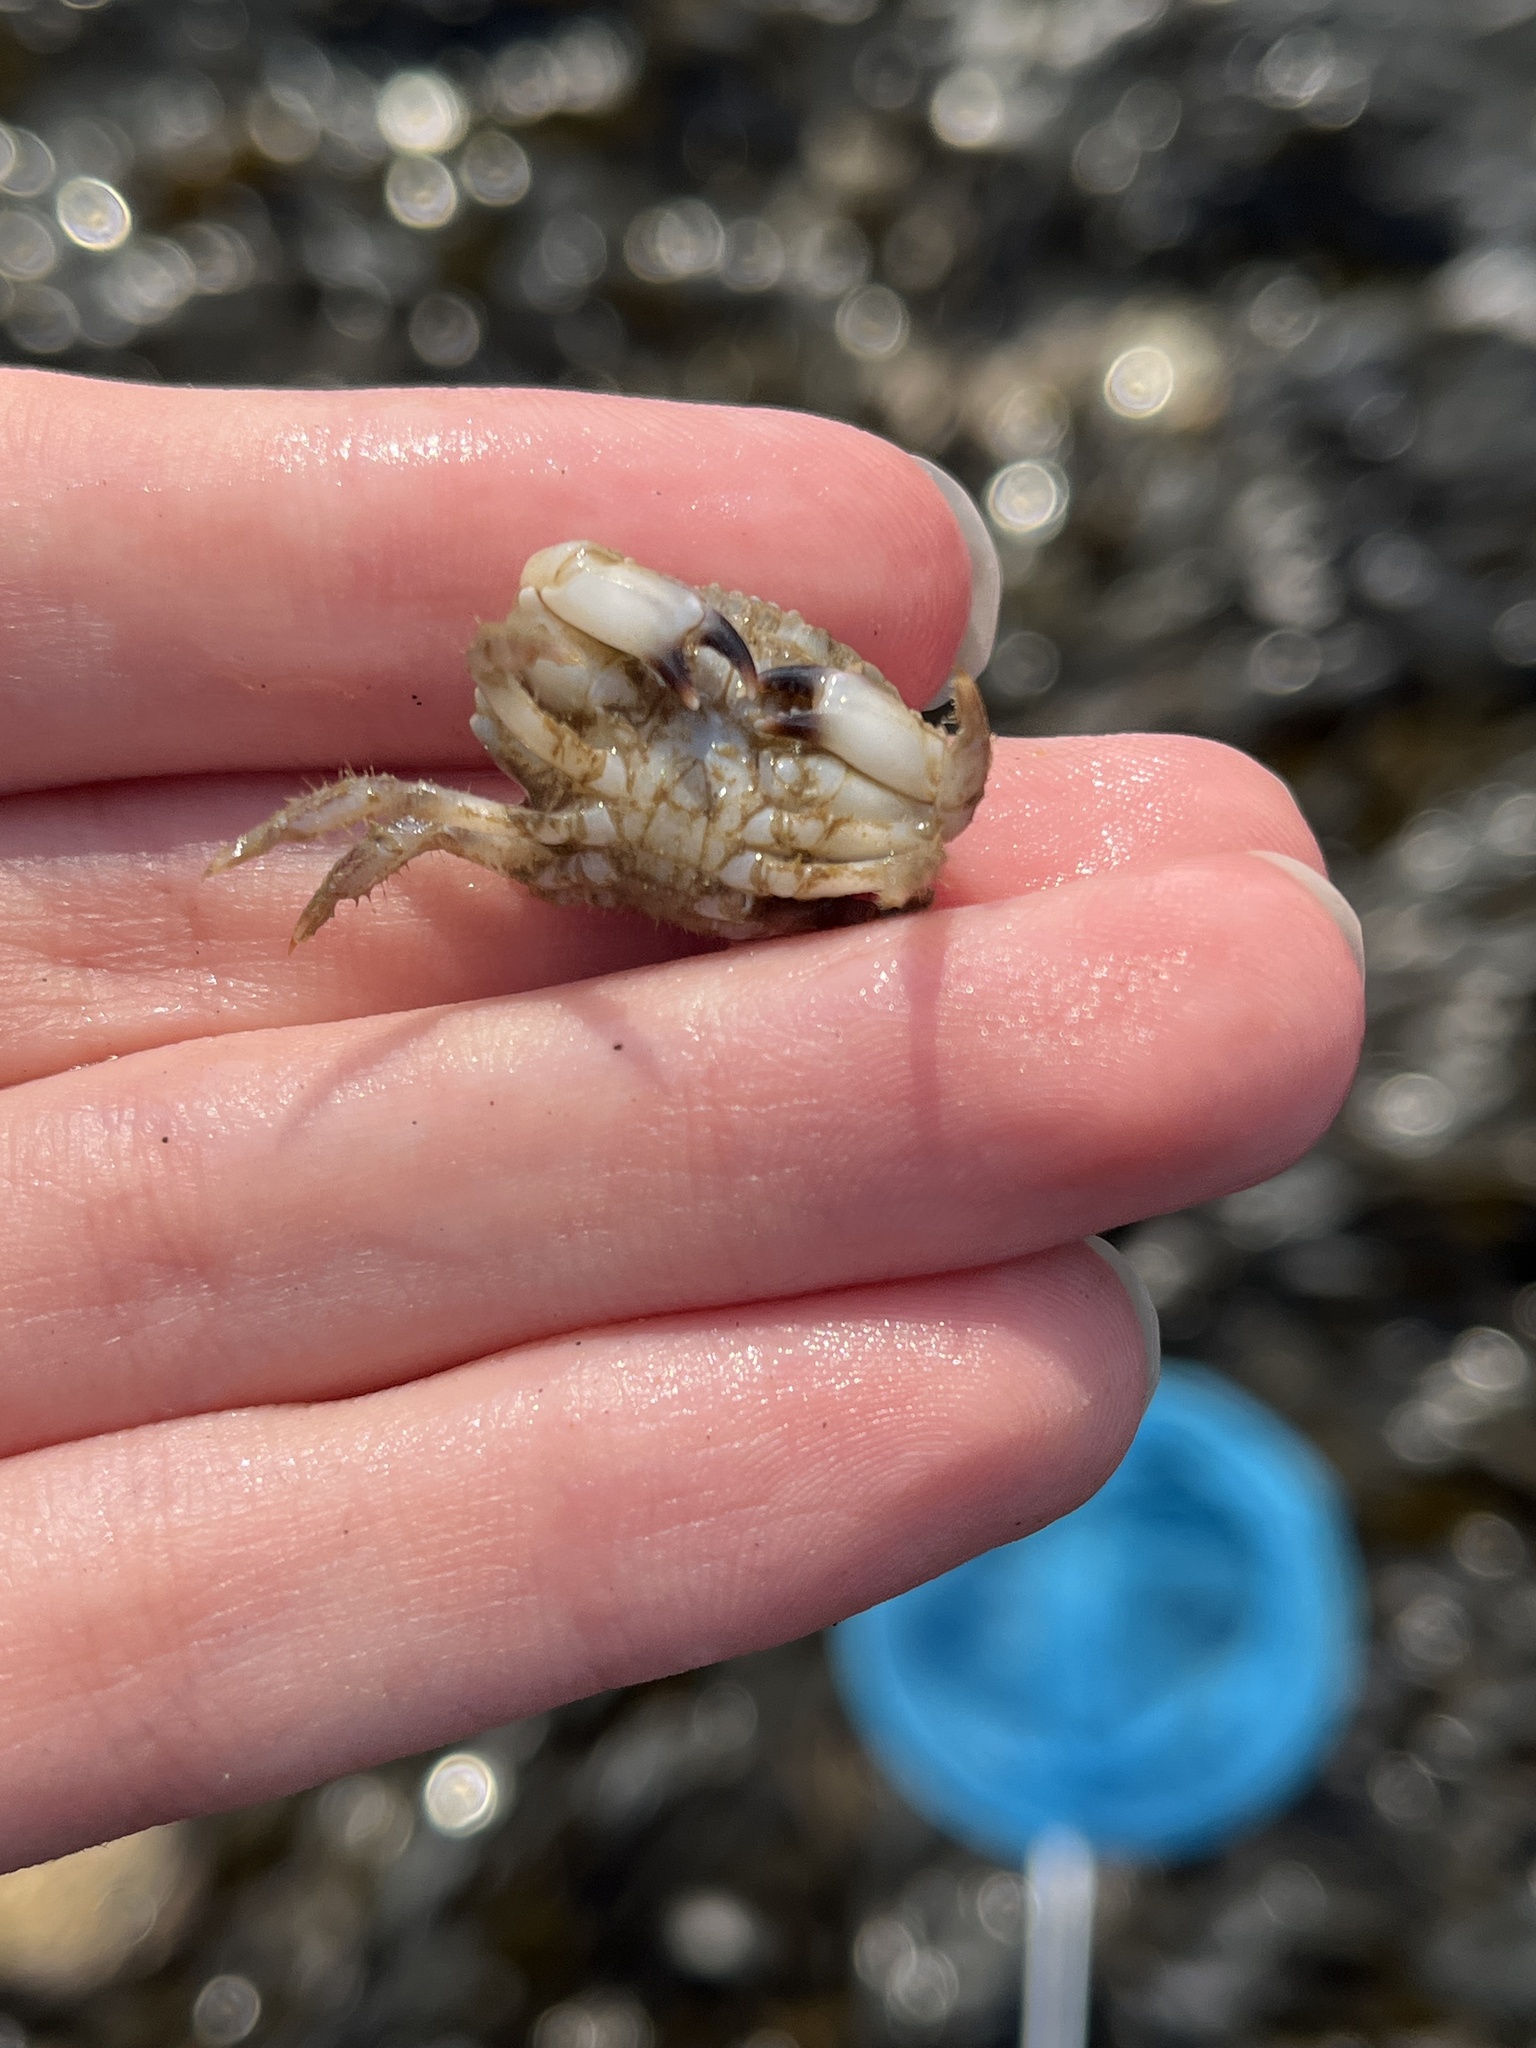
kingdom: Animalia
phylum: Arthropoda
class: Malacostraca
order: Decapoda
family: Cancridae
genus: Cancer
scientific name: Cancer pagurus
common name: Edible crab
